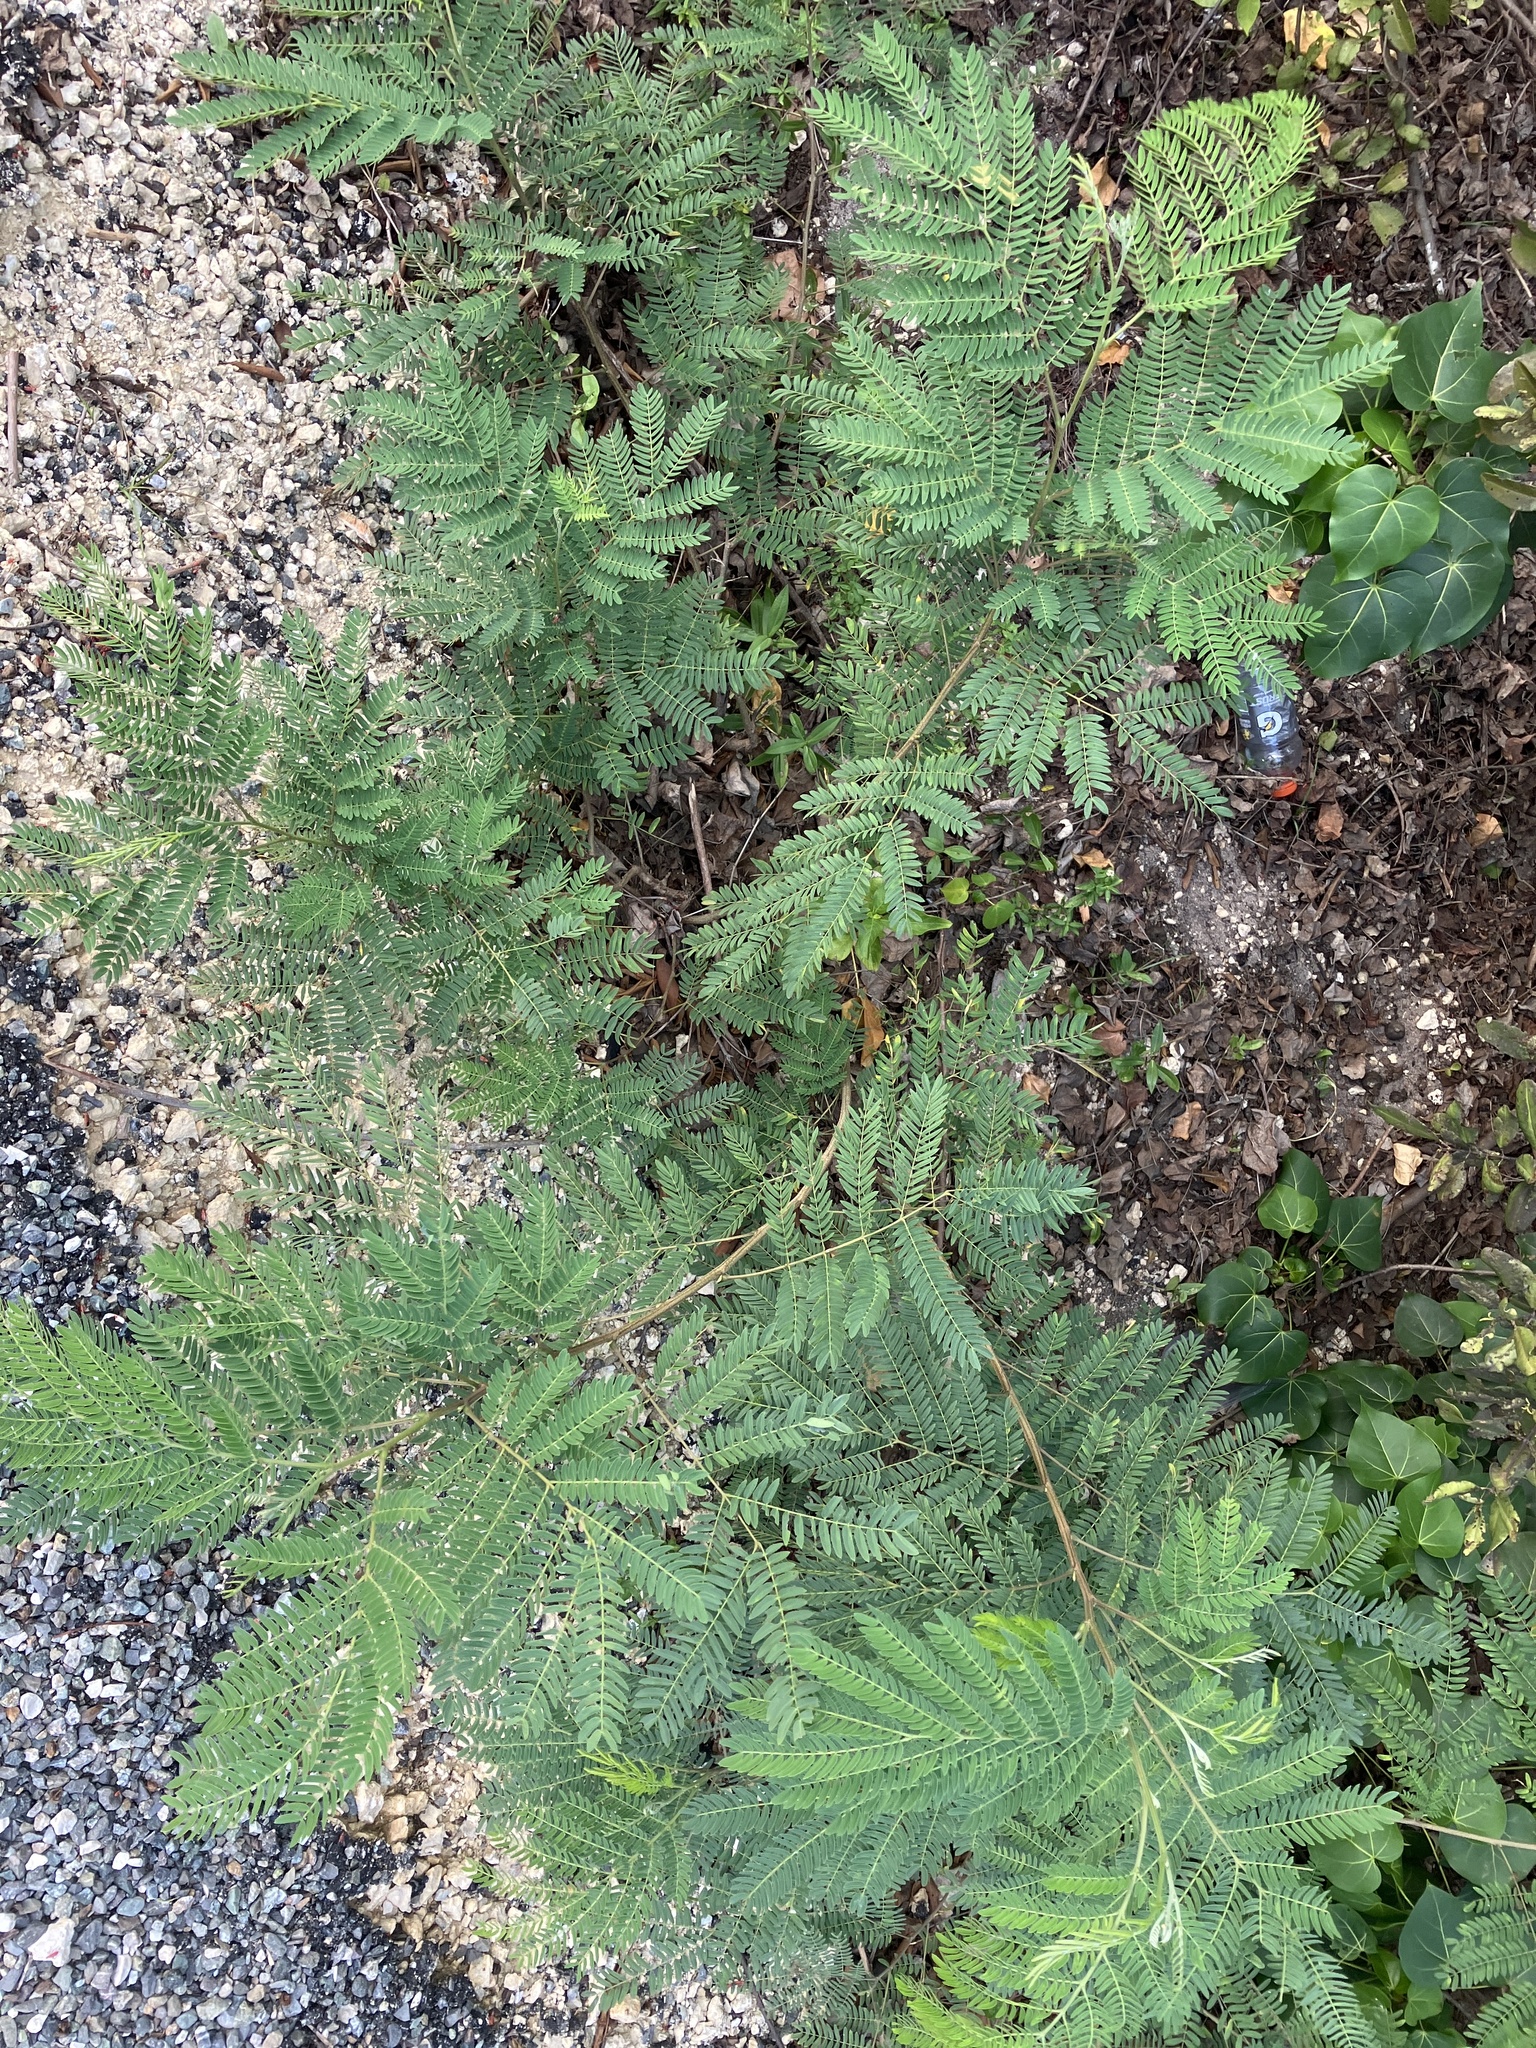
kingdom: Plantae
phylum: Tracheophyta
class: Magnoliopsida
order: Fabales
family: Fabaceae
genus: Leucaena
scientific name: Leucaena leucocephala
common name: White leadtree
